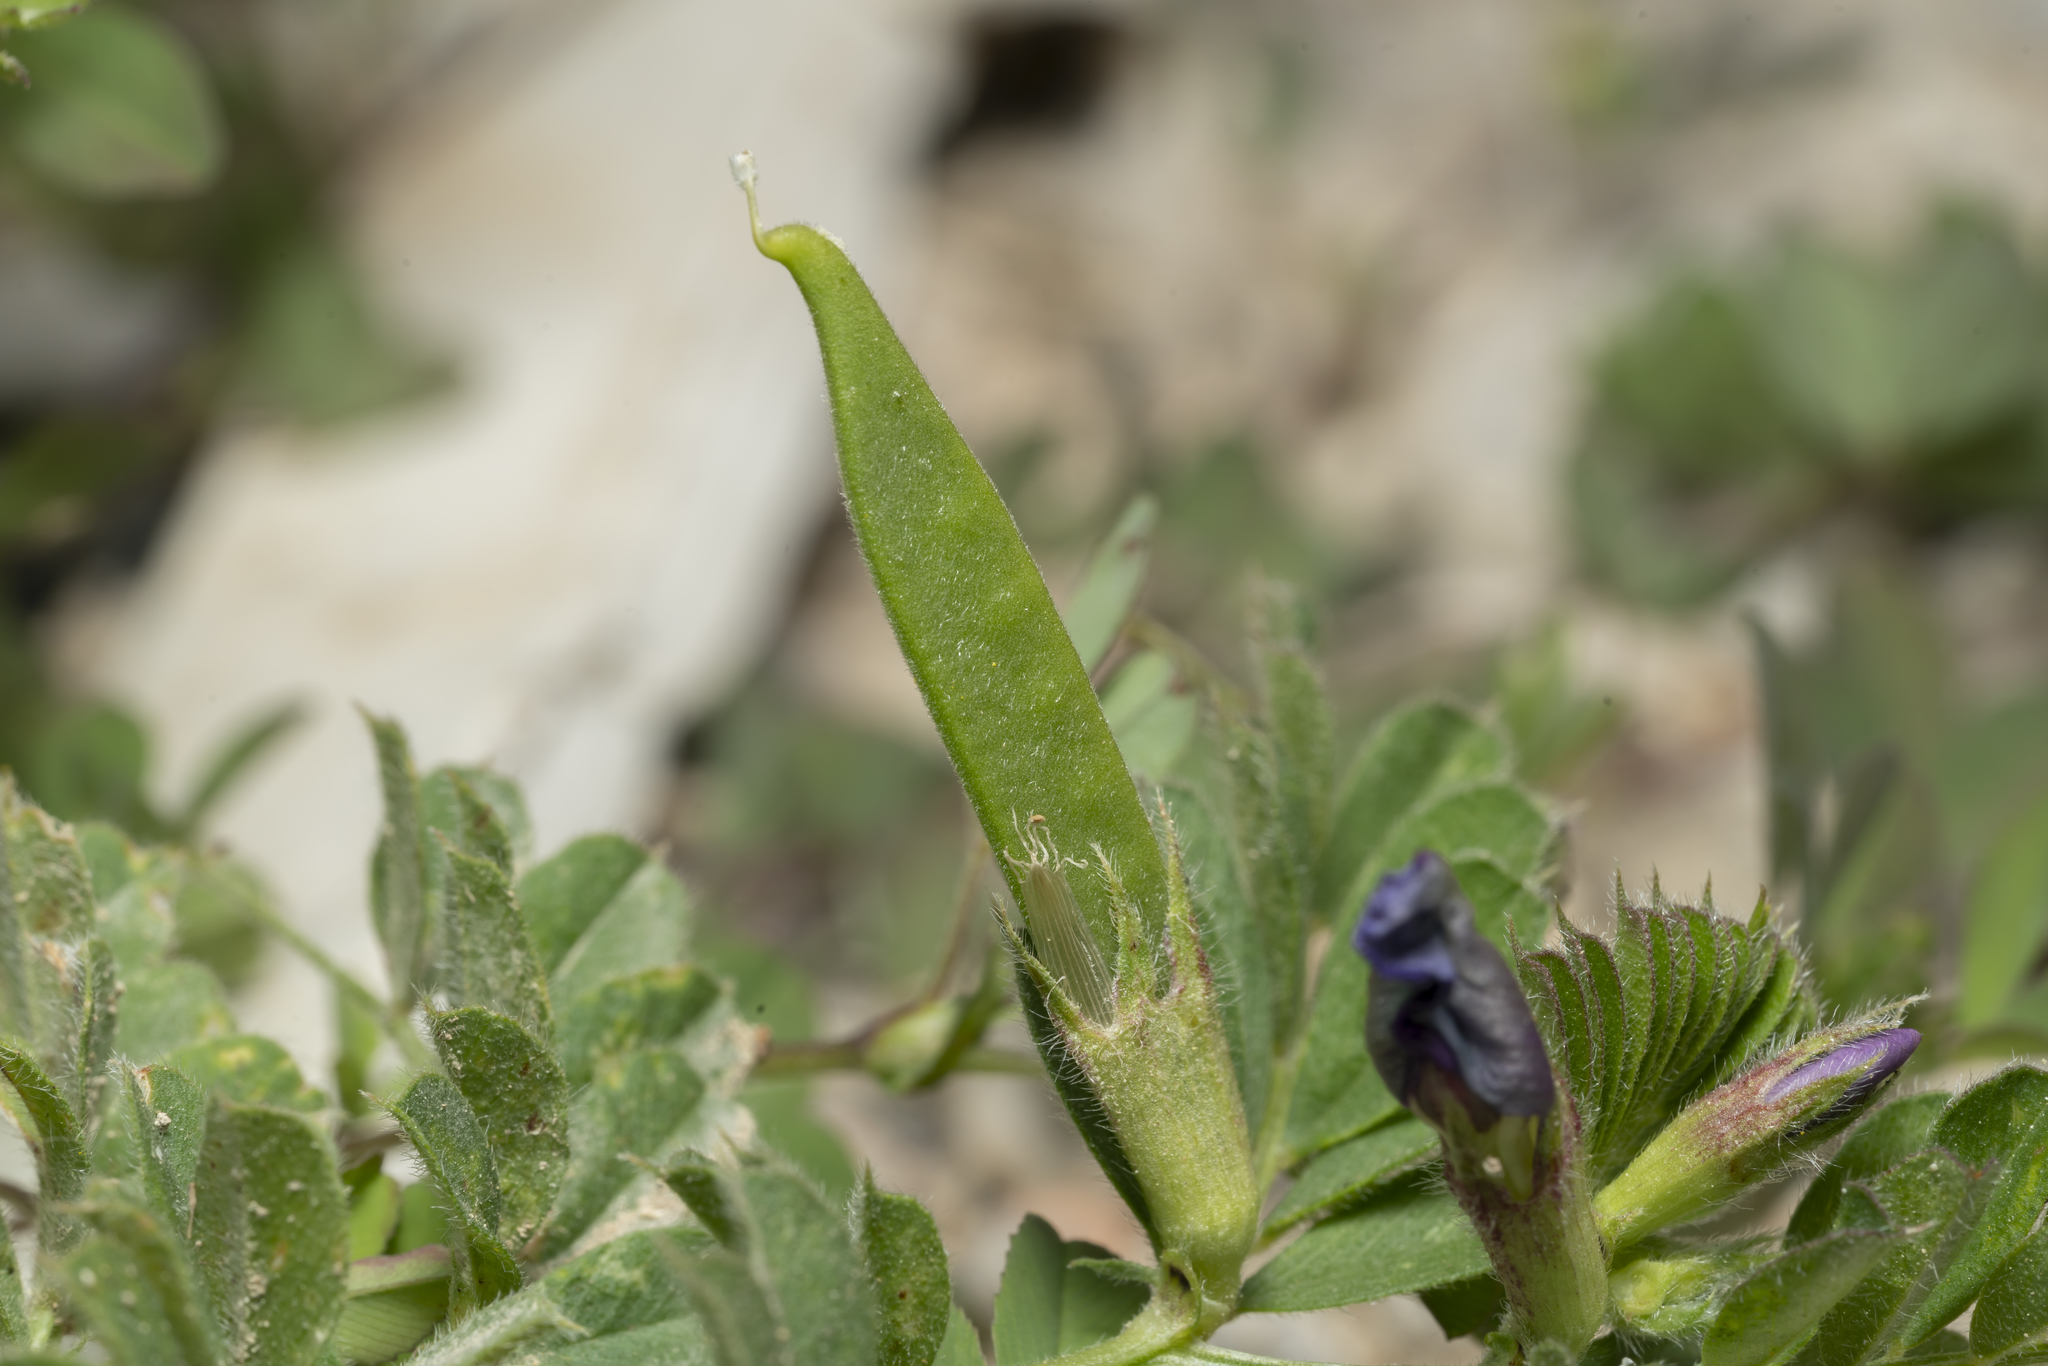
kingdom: Plantae
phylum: Tracheophyta
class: Magnoliopsida
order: Fabales
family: Fabaceae
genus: Vicia
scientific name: Vicia sativa
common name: Garden vetch
